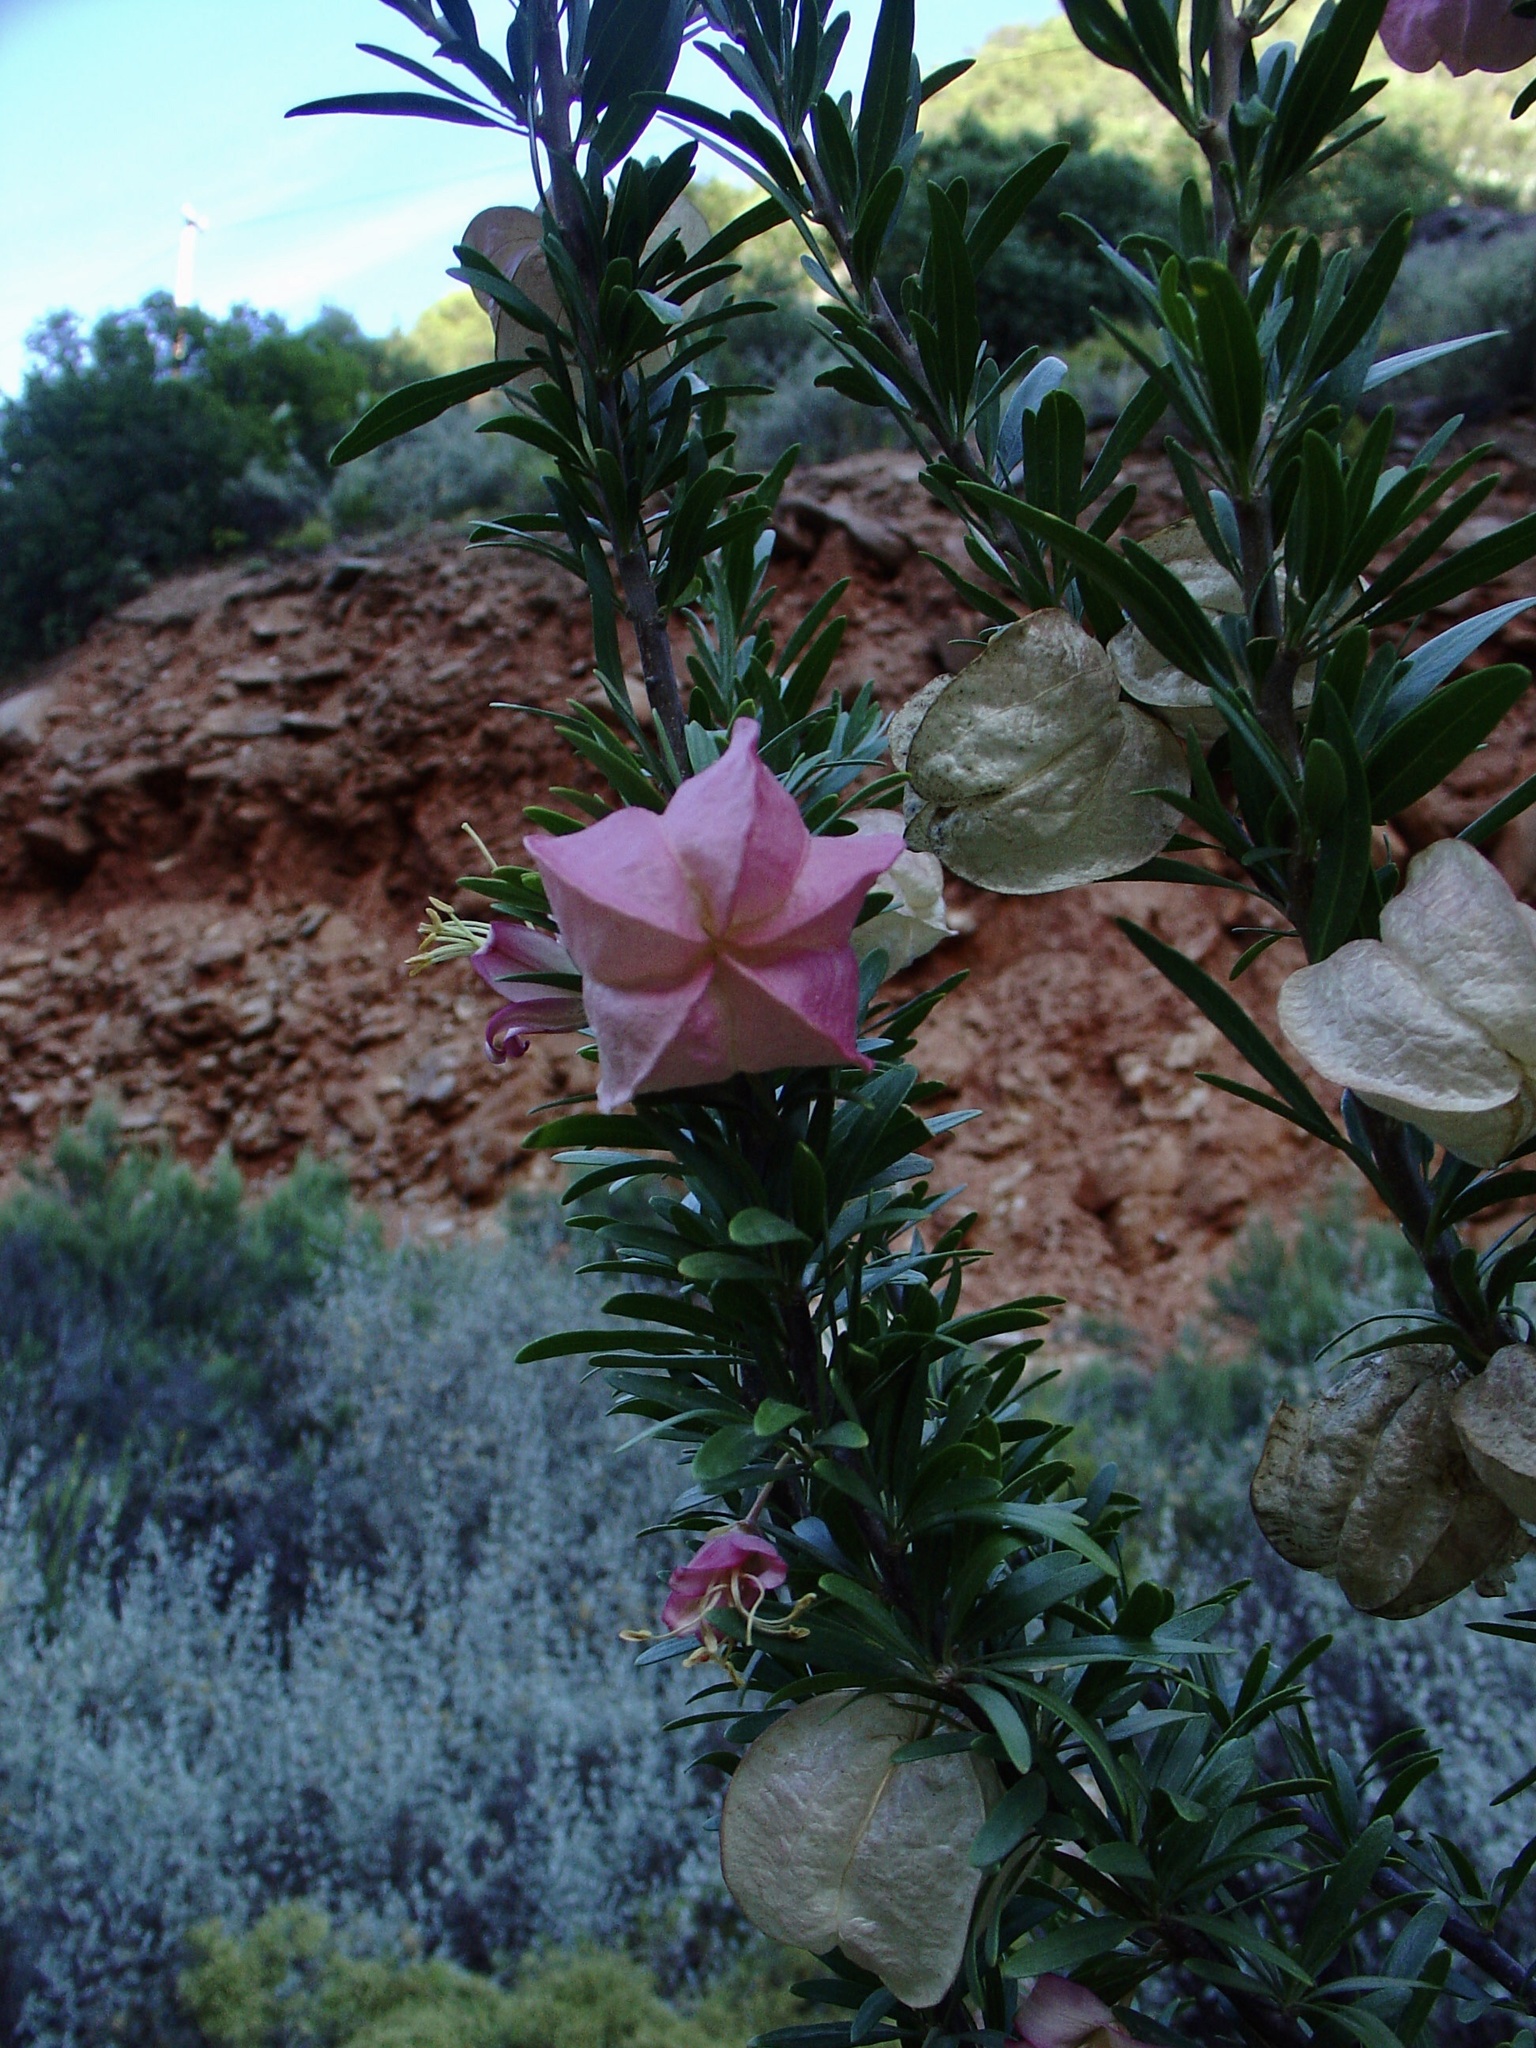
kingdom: Plantae
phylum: Tracheophyta
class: Magnoliopsida
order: Sapindales
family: Meliaceae
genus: Nymania
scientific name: Nymania capensis
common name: Chinese lantern tree
